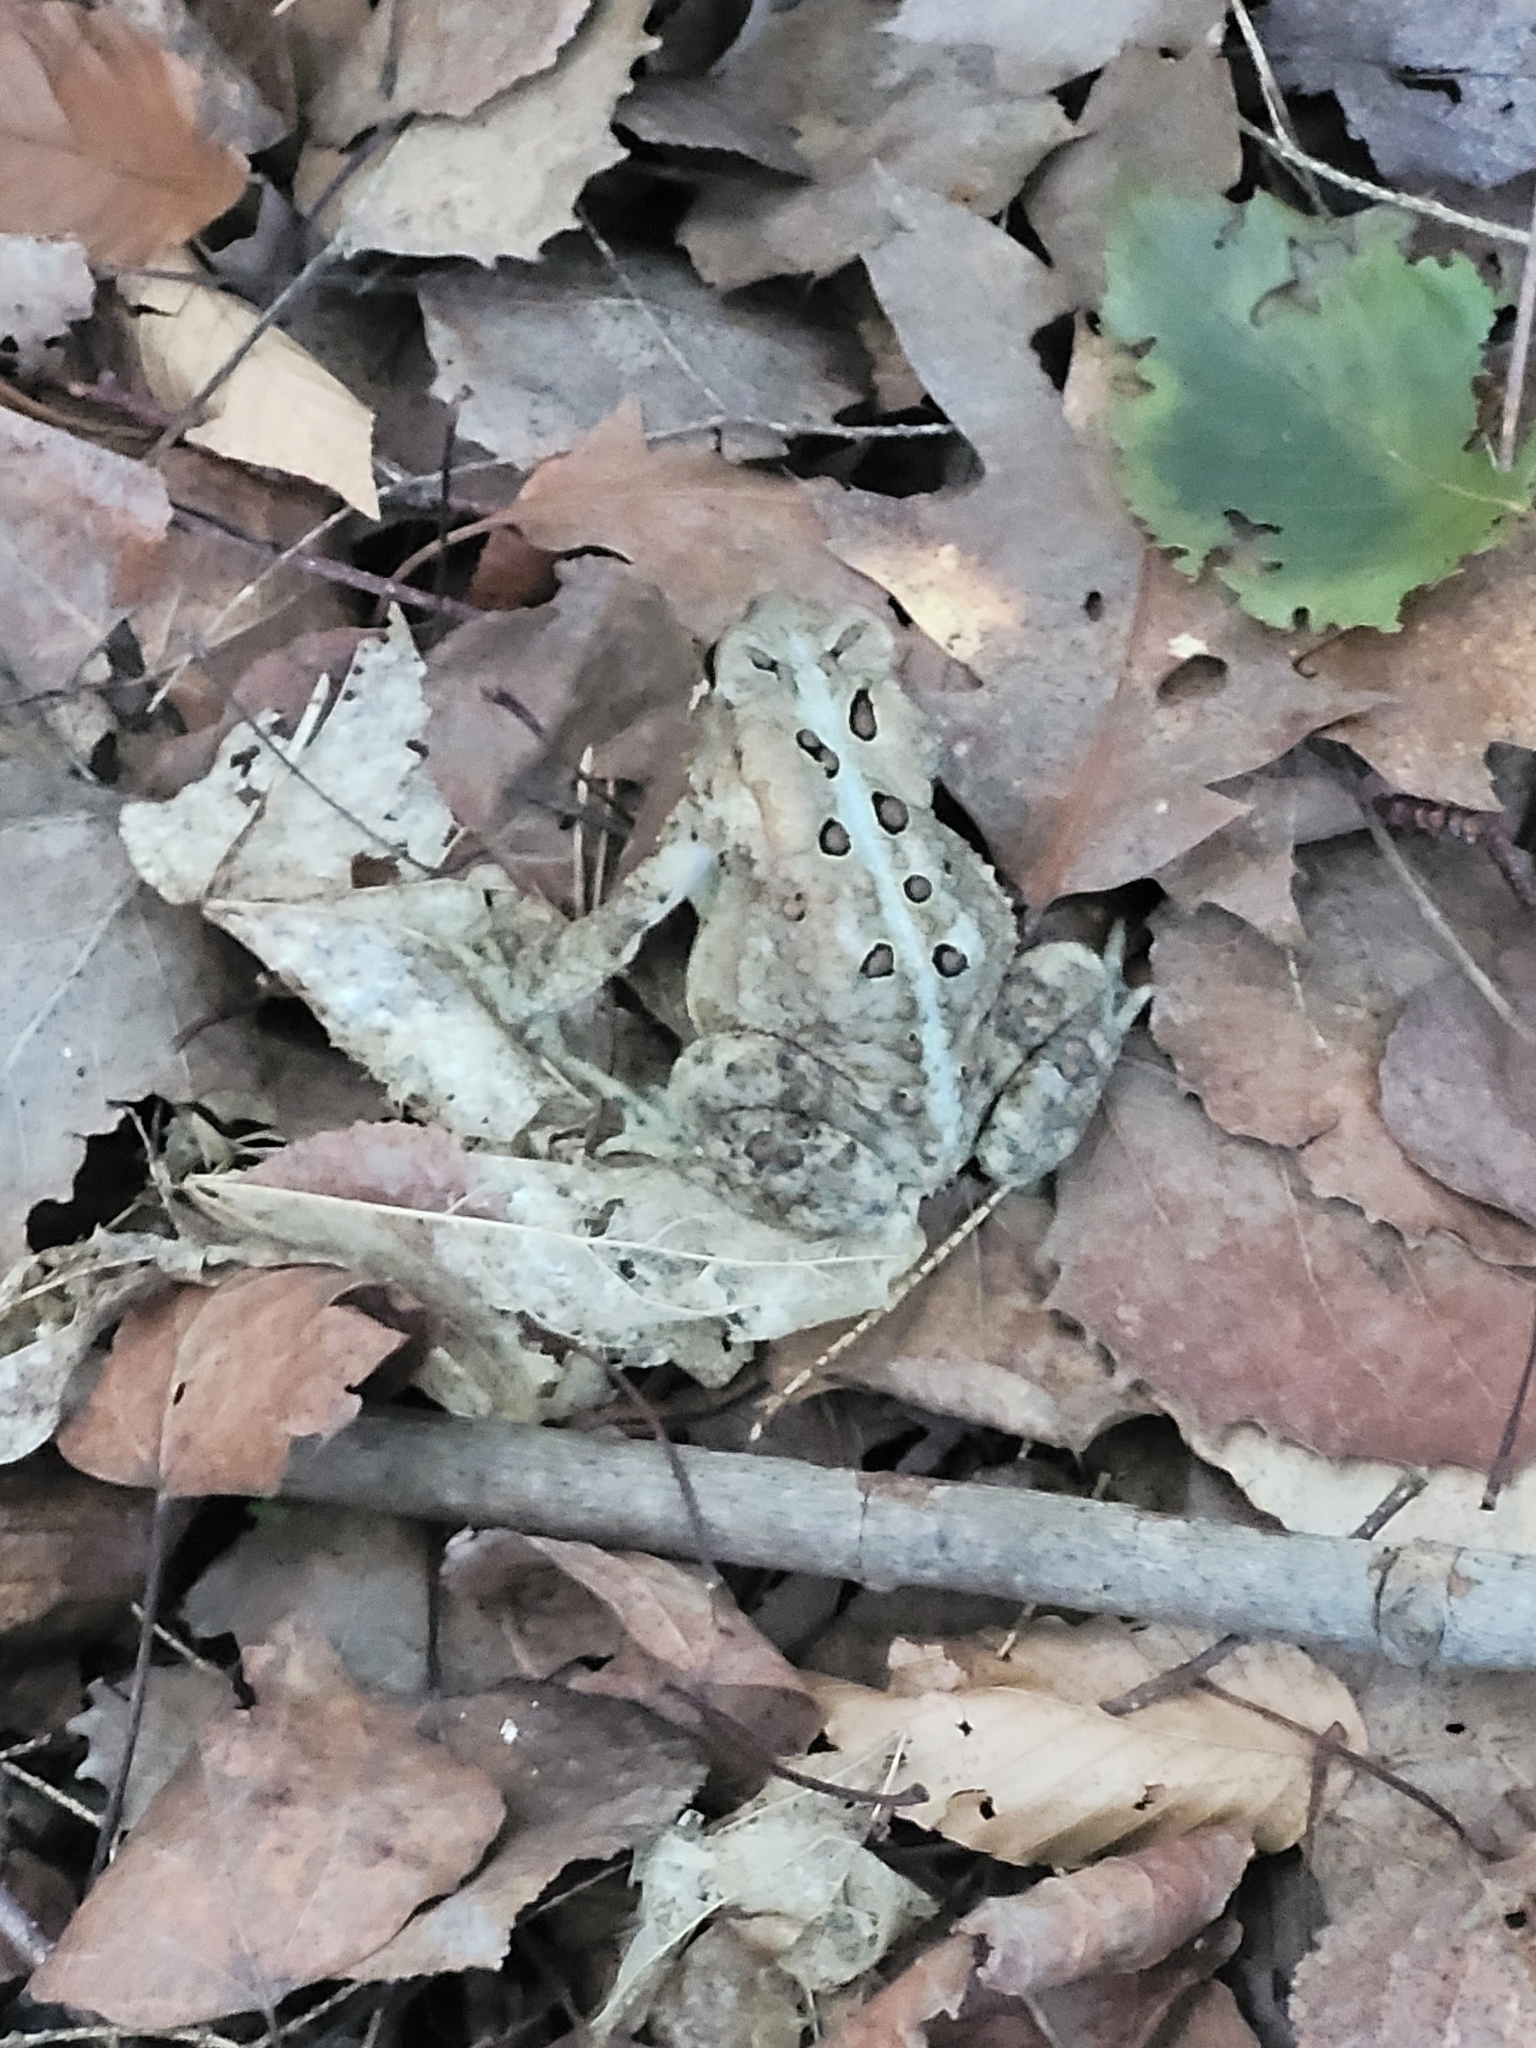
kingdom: Animalia
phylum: Chordata
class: Amphibia
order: Anura
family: Bufonidae
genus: Anaxyrus
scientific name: Anaxyrus americanus
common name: American toad
